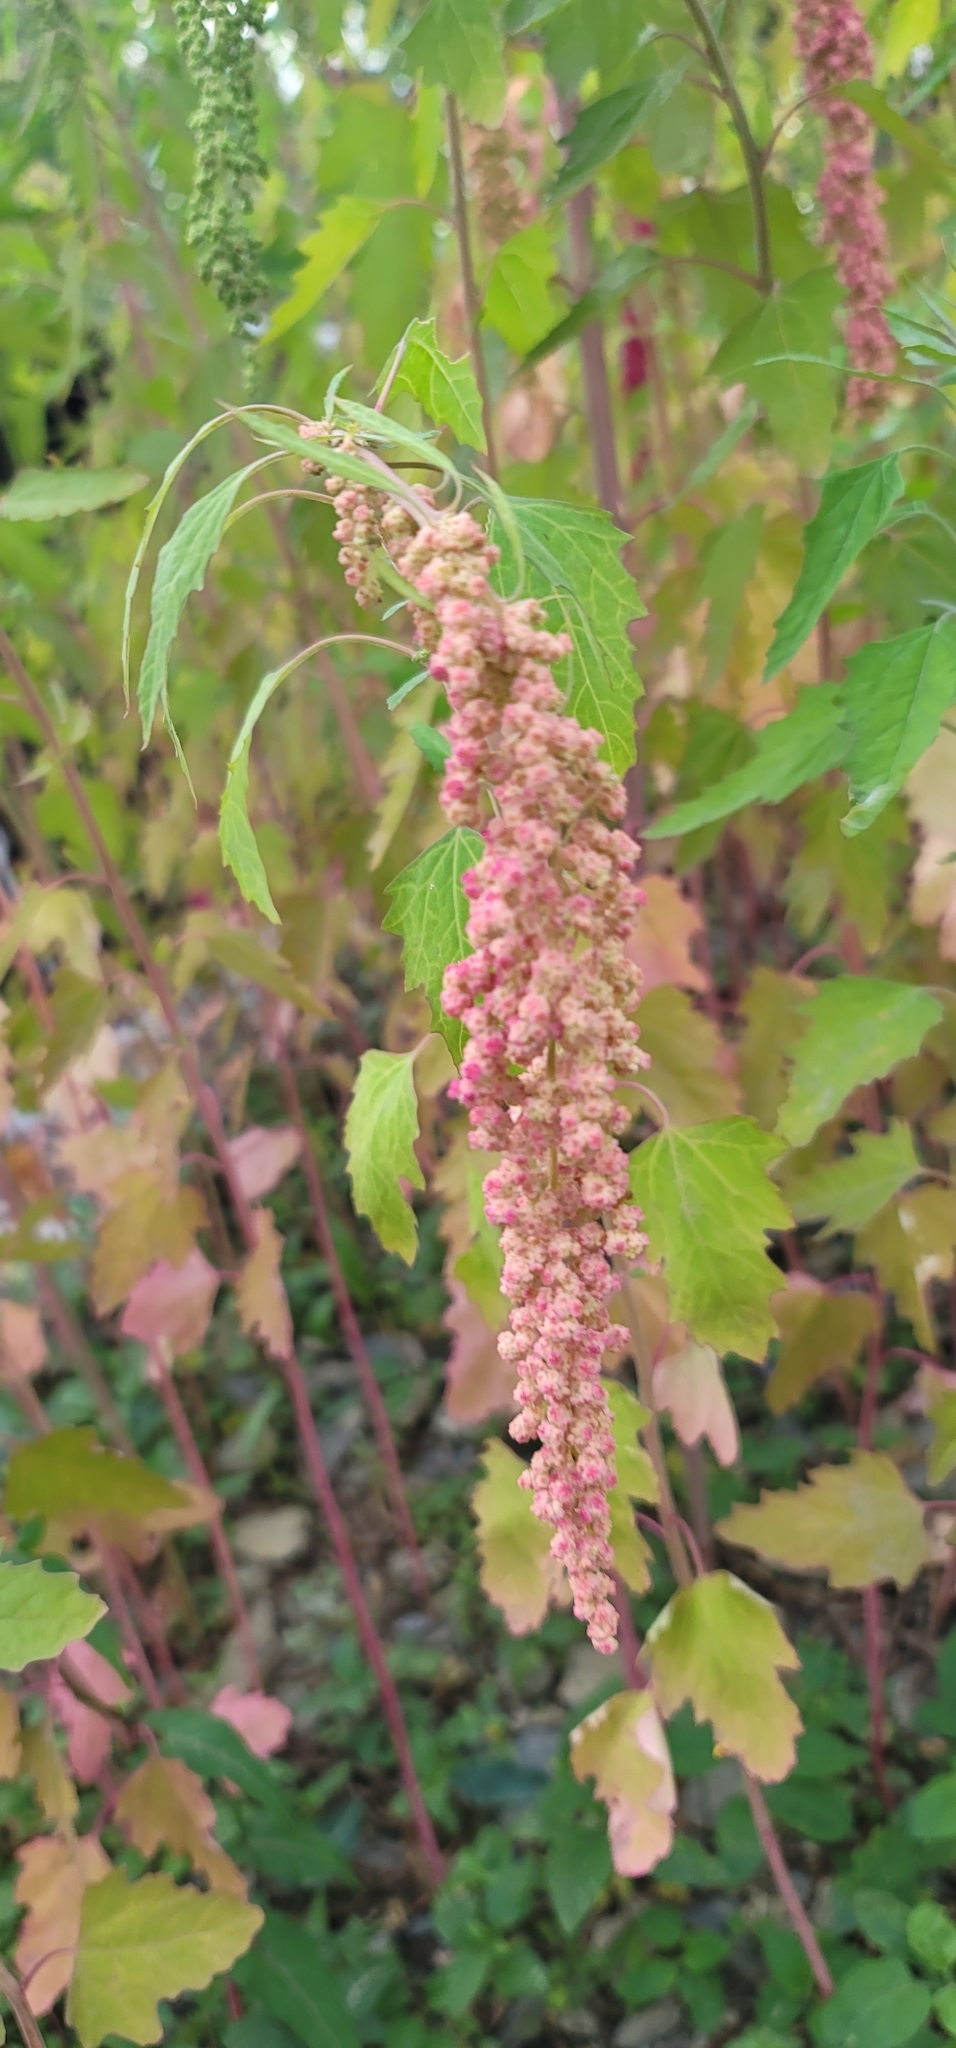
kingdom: Plantae
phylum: Tracheophyta
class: Magnoliopsida
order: Caryophyllales
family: Amaranthaceae
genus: Chenopodium
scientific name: Chenopodium giganteum
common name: Magentaspreen
